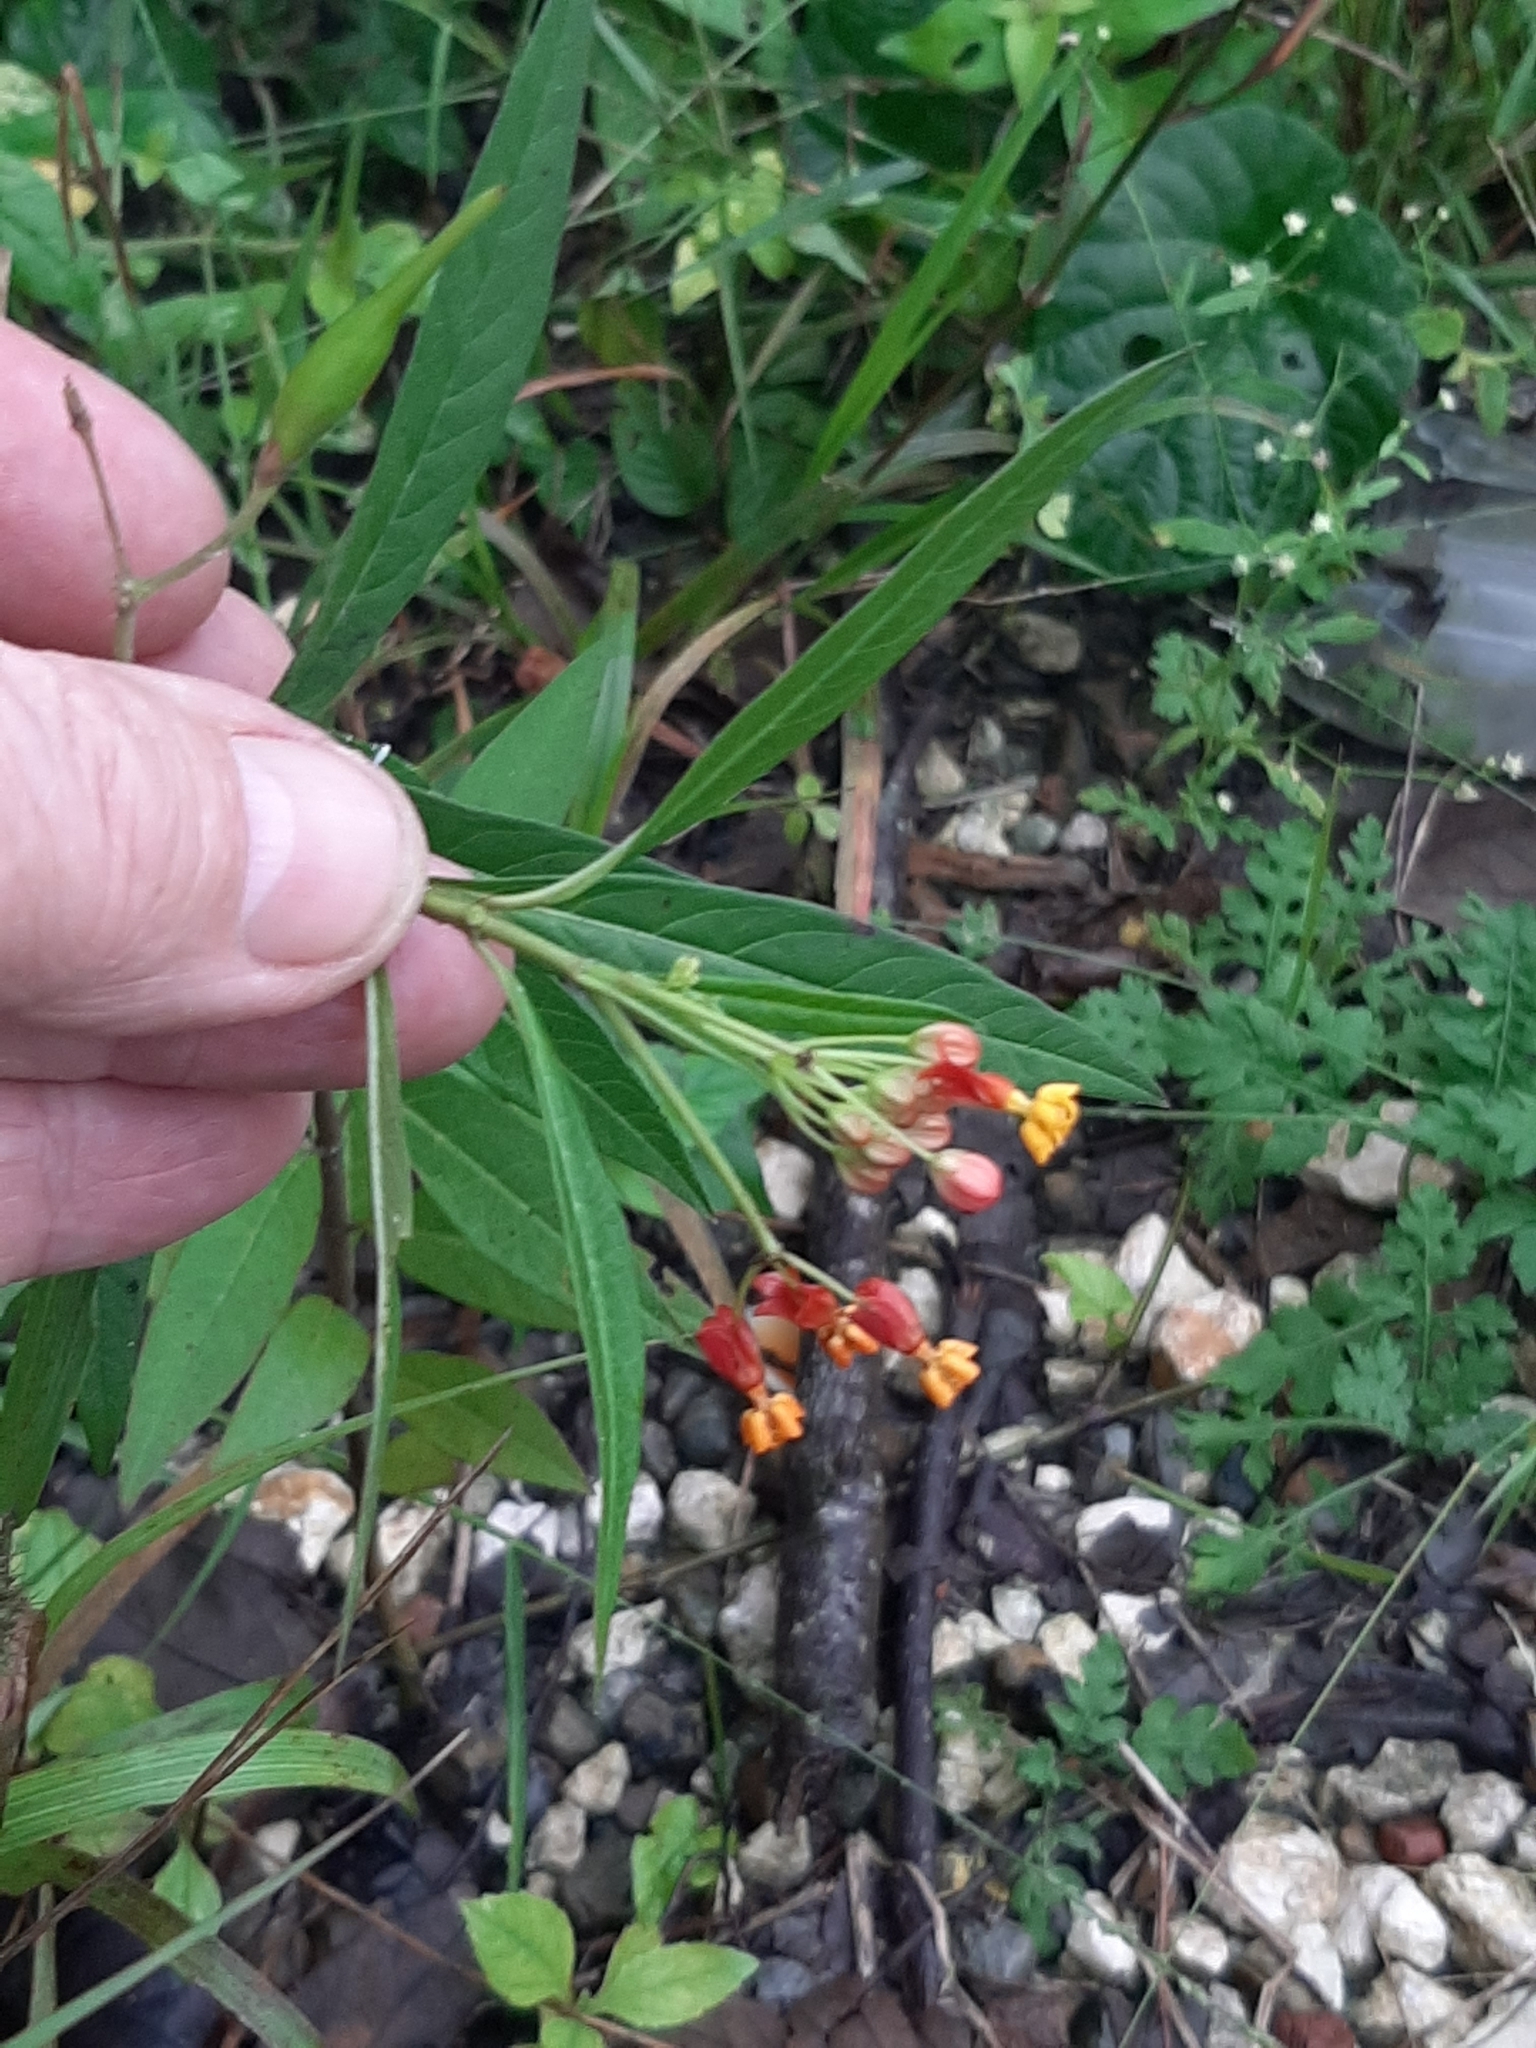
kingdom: Plantae
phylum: Tracheophyta
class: Magnoliopsida
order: Gentianales
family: Apocynaceae
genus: Asclepias
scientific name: Asclepias curassavica
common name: Bloodflower
